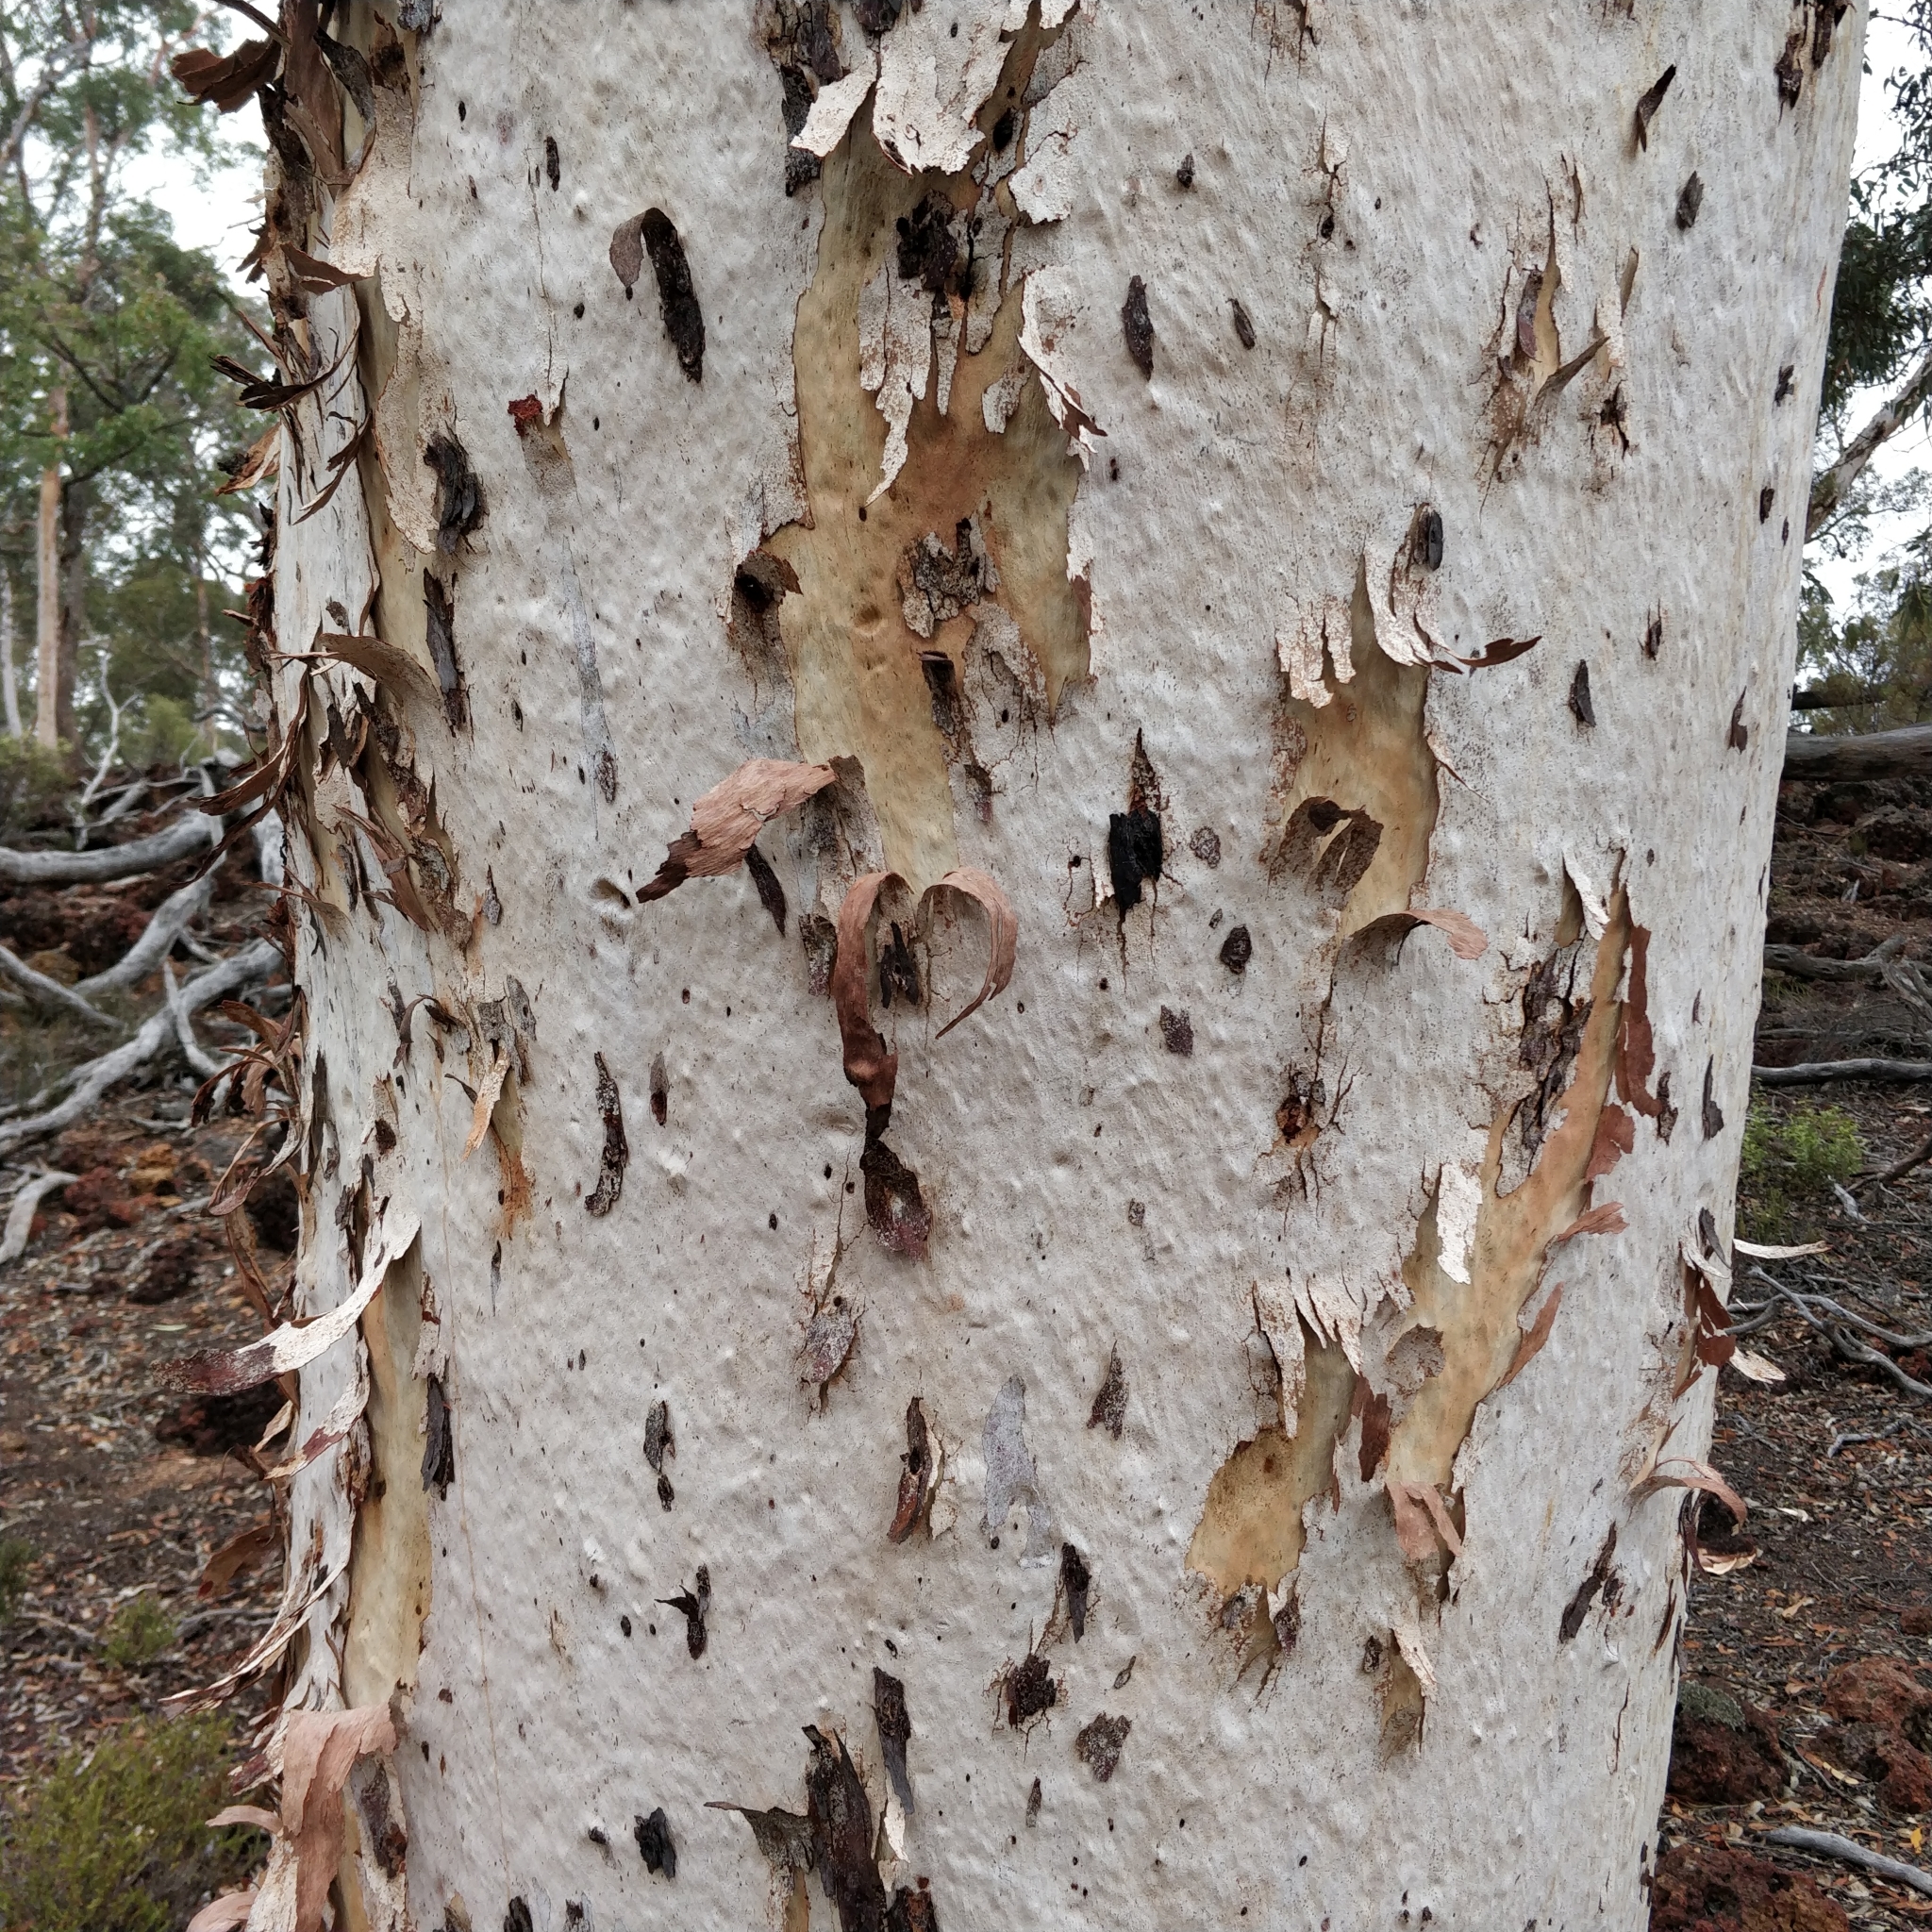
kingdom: Plantae
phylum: Tracheophyta
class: Magnoliopsida
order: Myrtales
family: Myrtaceae
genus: Eucalyptus
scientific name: Eucalyptus wandoo
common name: White gum
